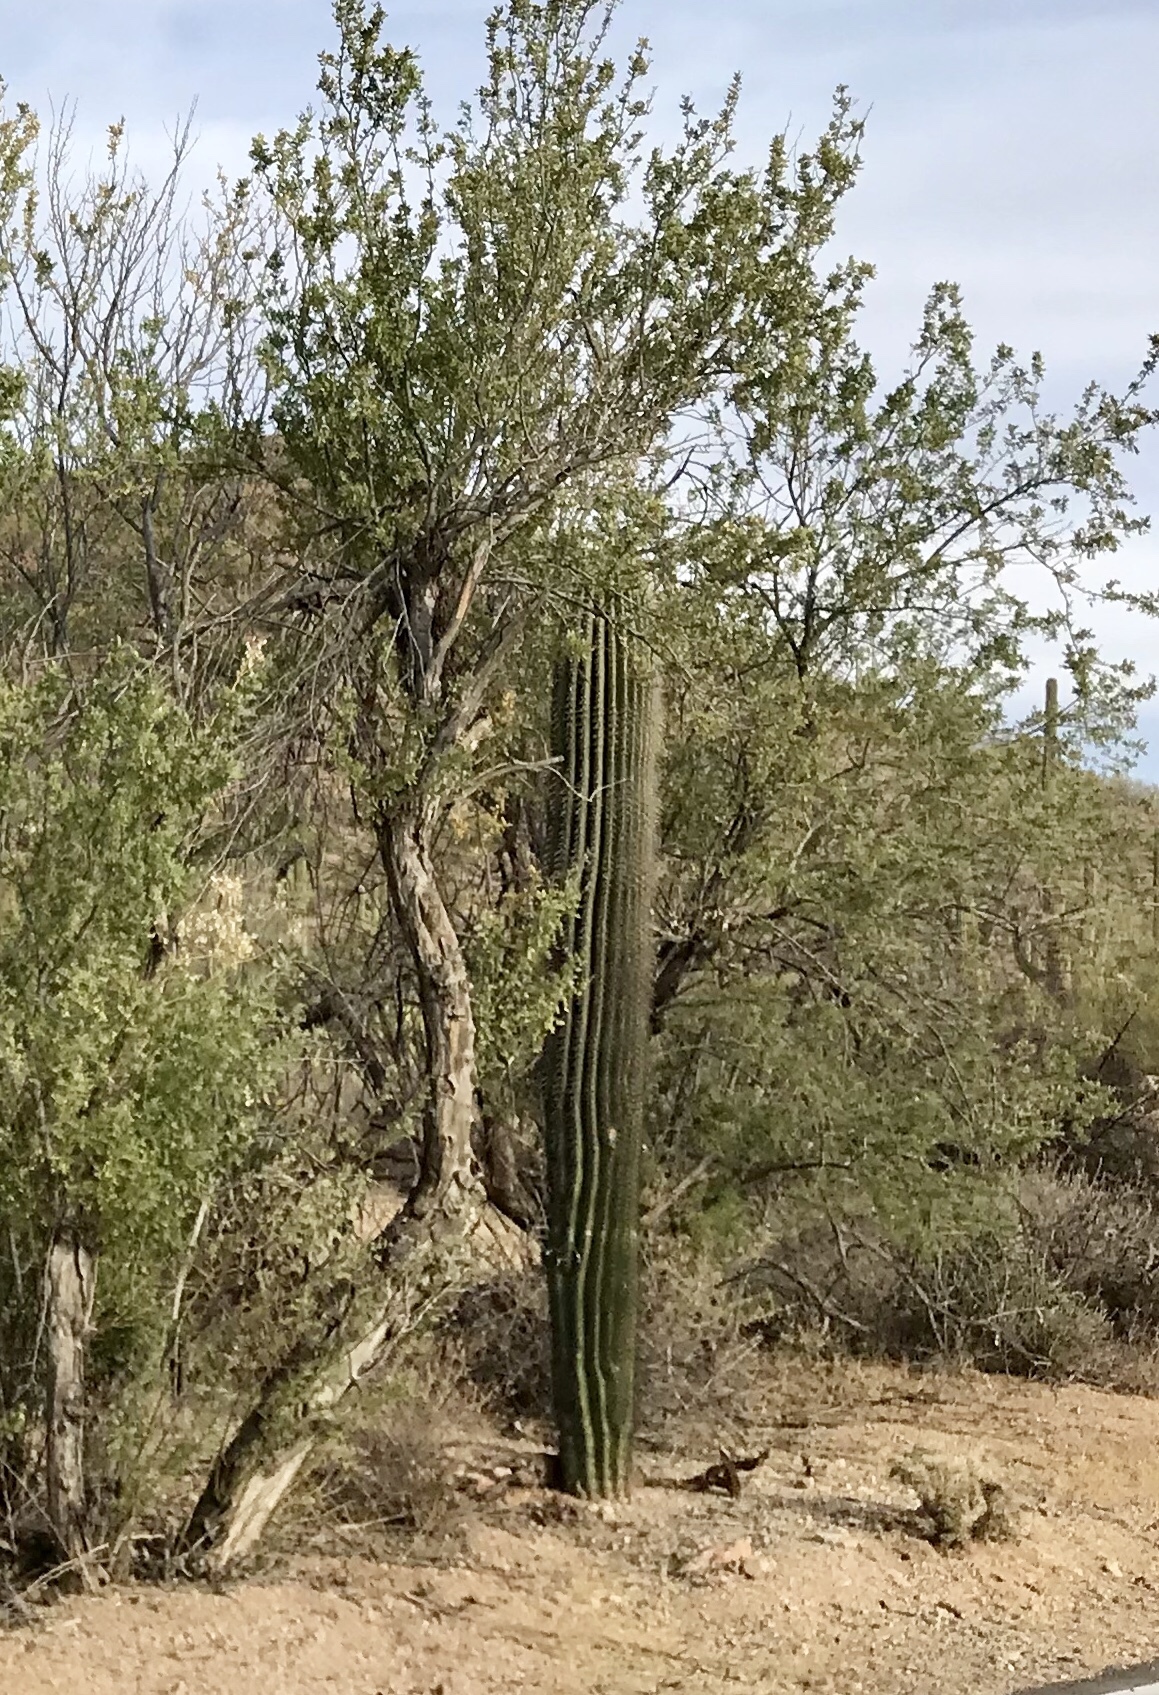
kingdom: Plantae
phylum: Tracheophyta
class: Magnoliopsida
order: Caryophyllales
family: Cactaceae
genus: Carnegiea
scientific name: Carnegiea gigantea
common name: Saguaro
